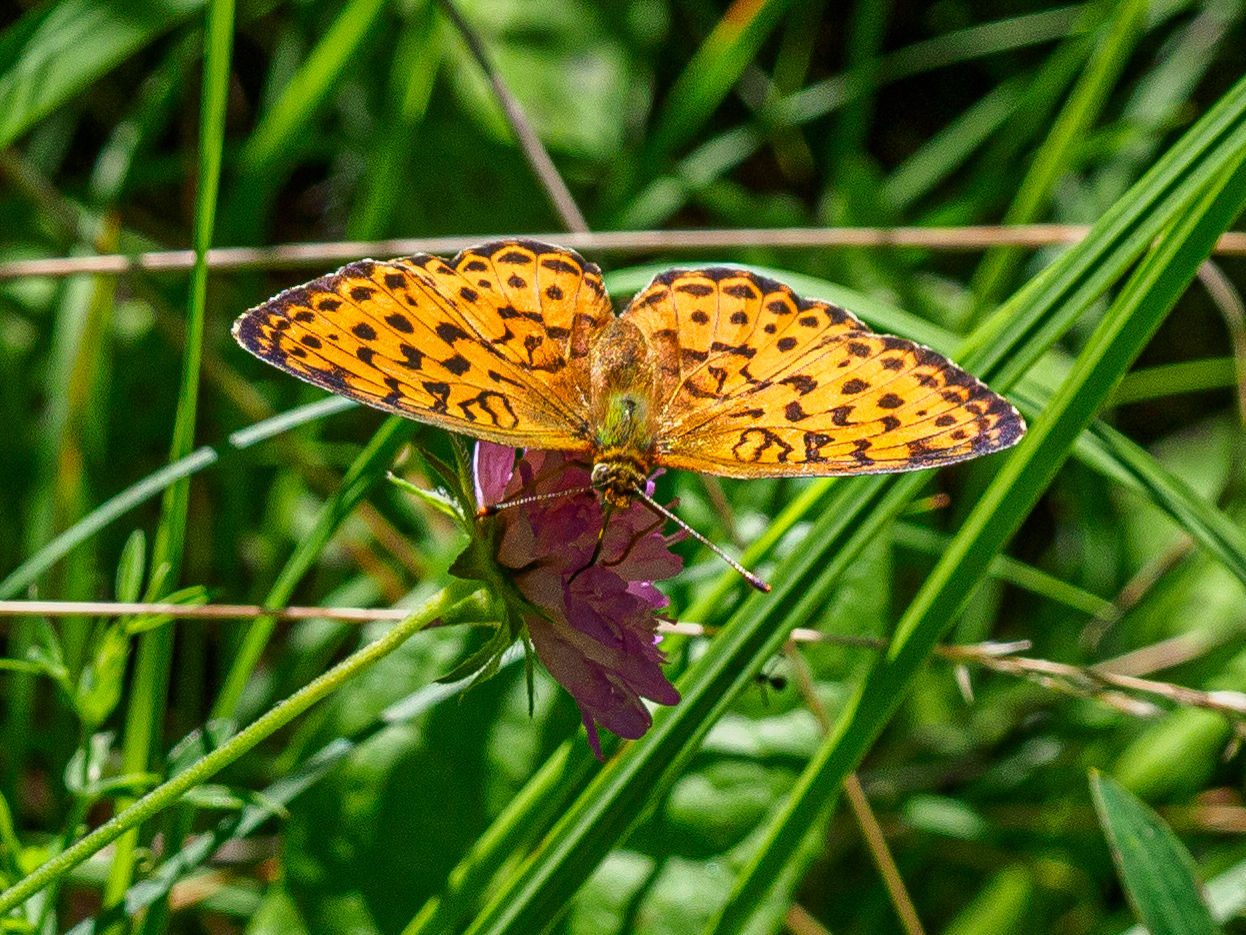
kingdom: Animalia
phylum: Arthropoda
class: Insecta
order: Lepidoptera
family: Nymphalidae
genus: Brenthis
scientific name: Brenthis daphne
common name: Marbled fritillary
